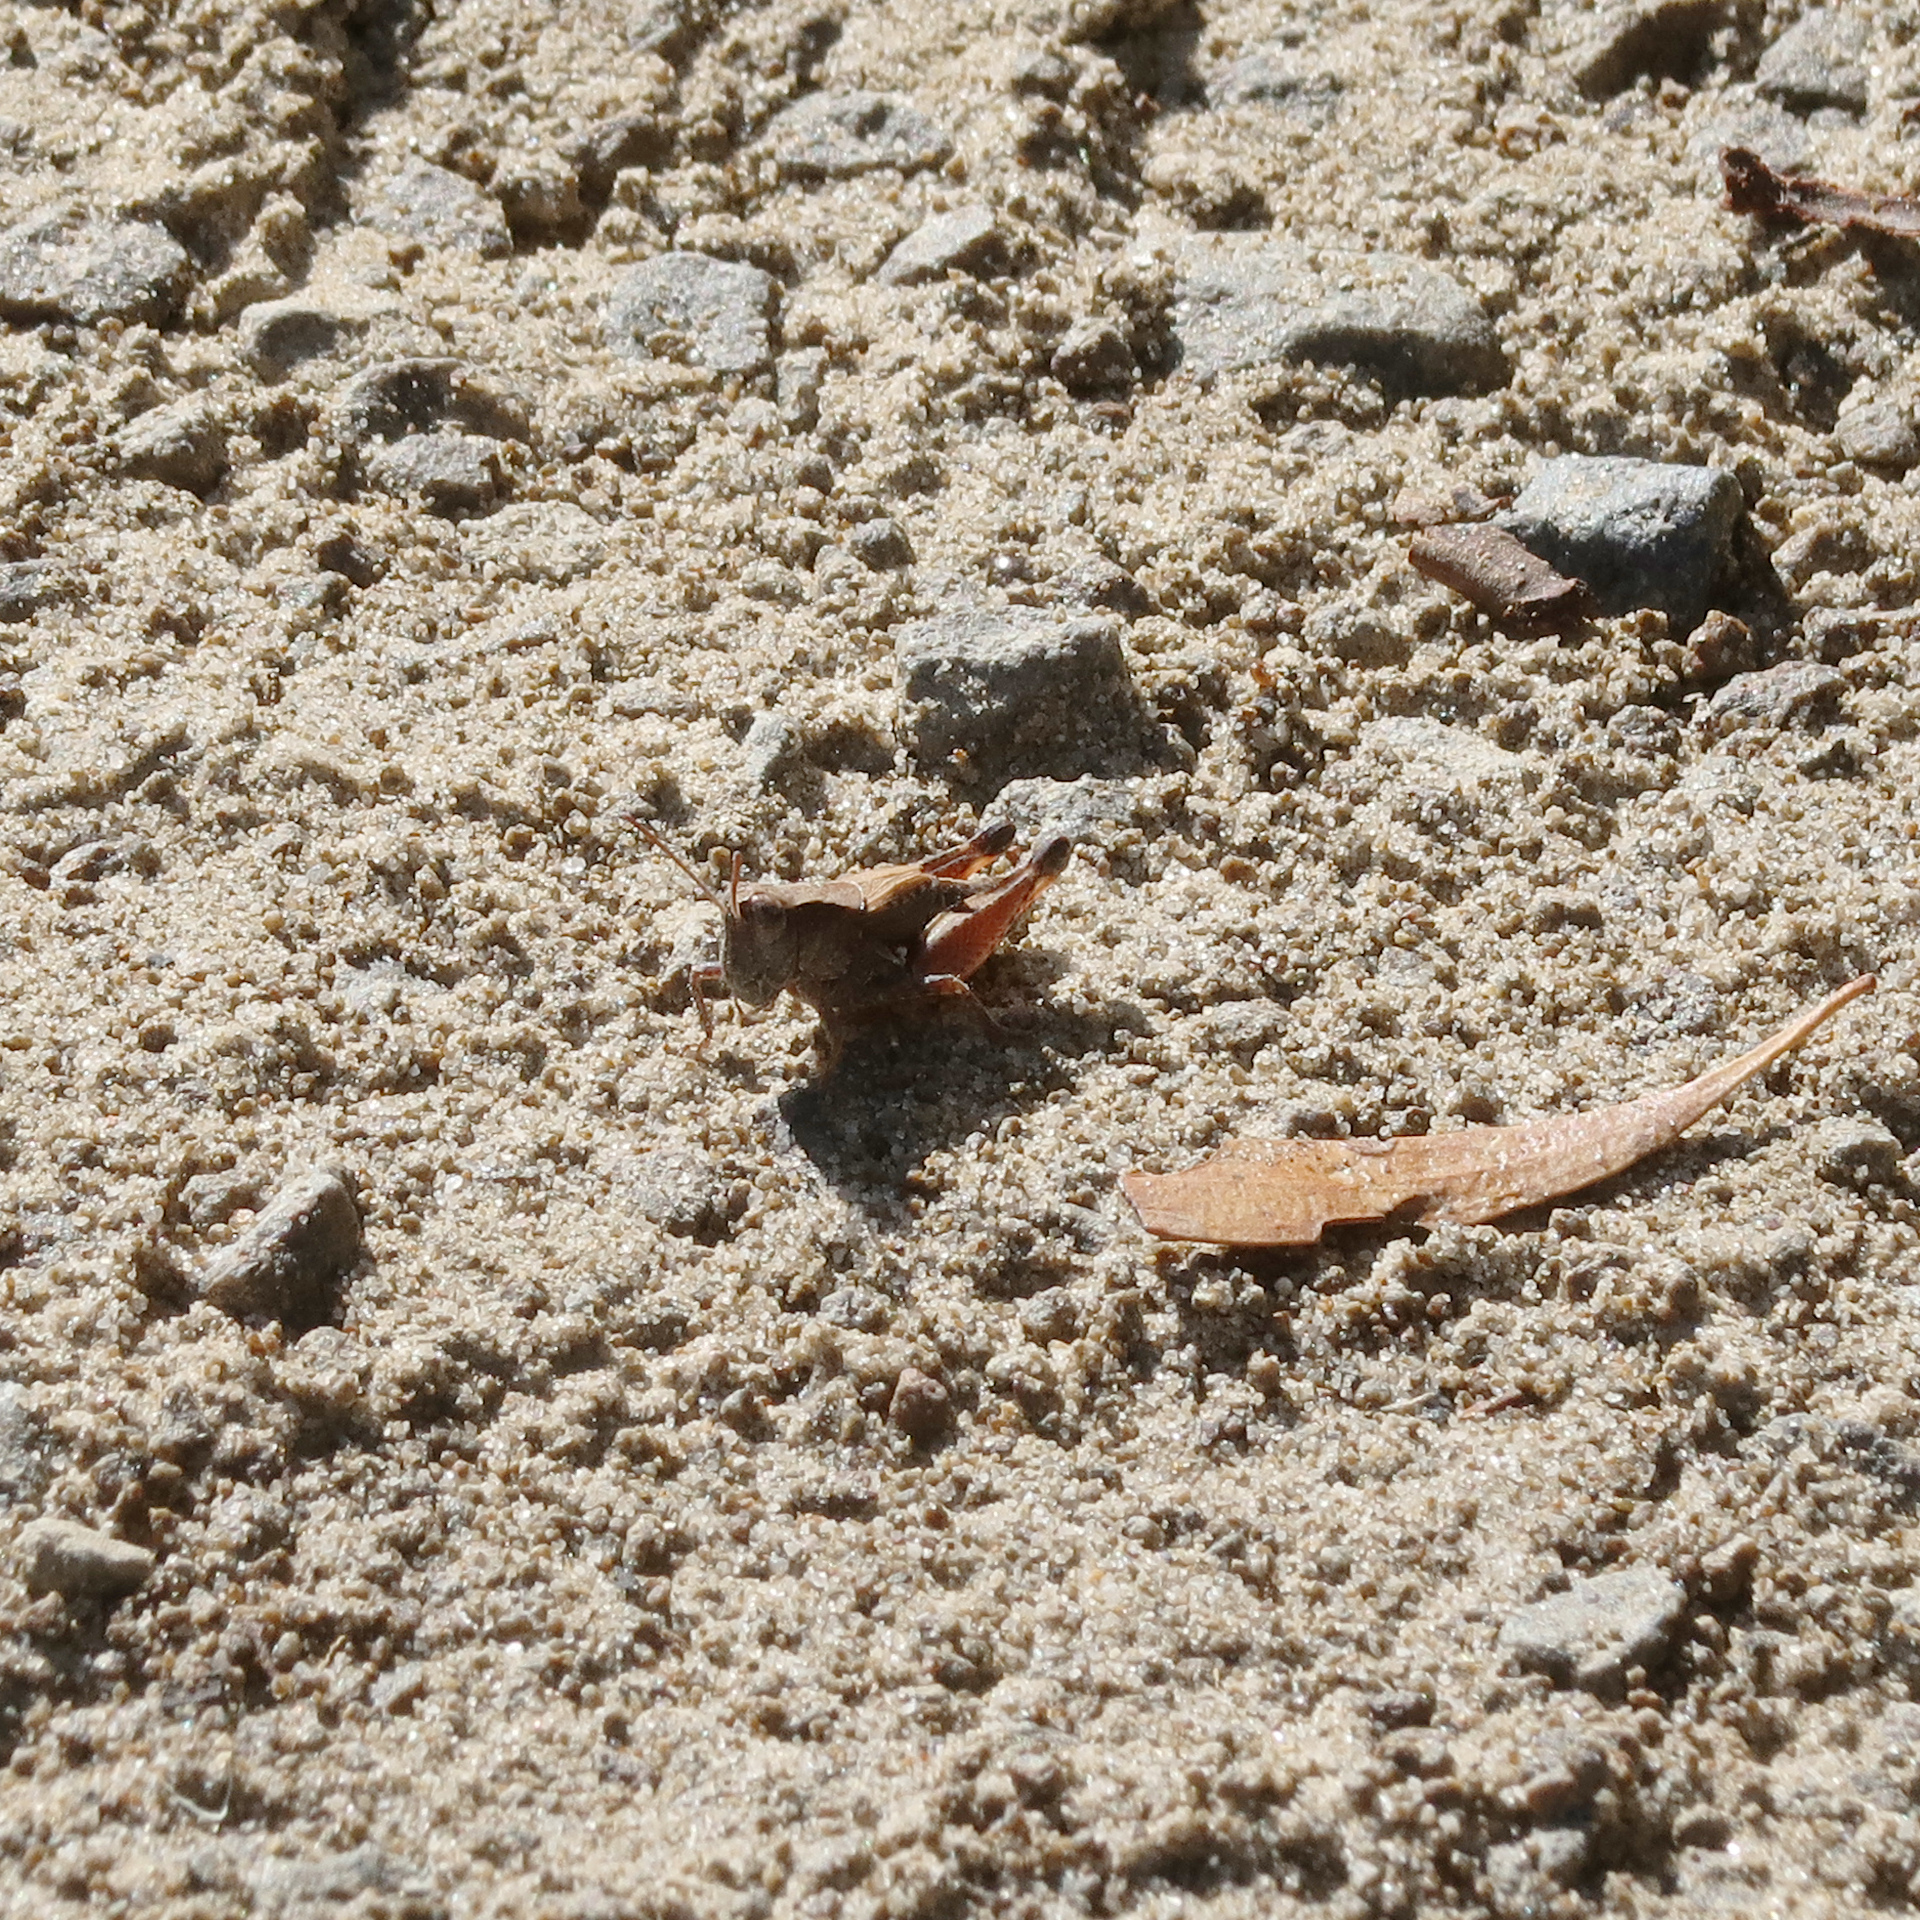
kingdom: Animalia
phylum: Arthropoda
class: Insecta
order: Orthoptera
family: Acrididae
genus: Phaulacridium
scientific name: Phaulacridium vittatum
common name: Wingless grasshopper
